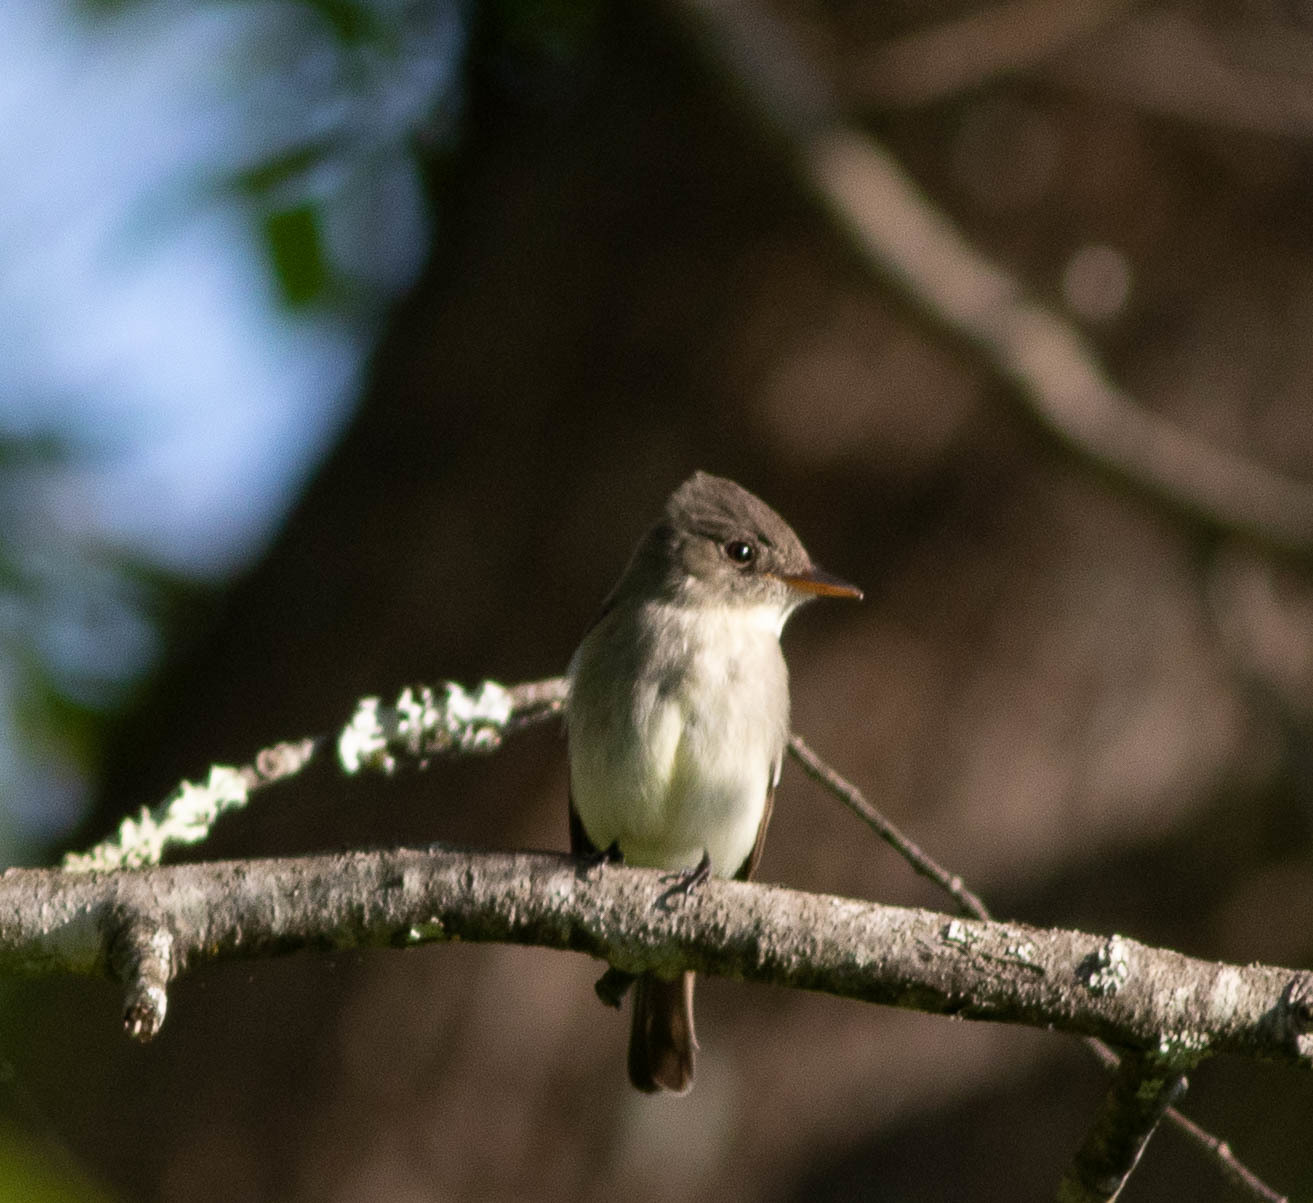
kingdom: Animalia
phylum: Chordata
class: Aves
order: Passeriformes
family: Tyrannidae
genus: Contopus
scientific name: Contopus virens
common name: Eastern wood-pewee
